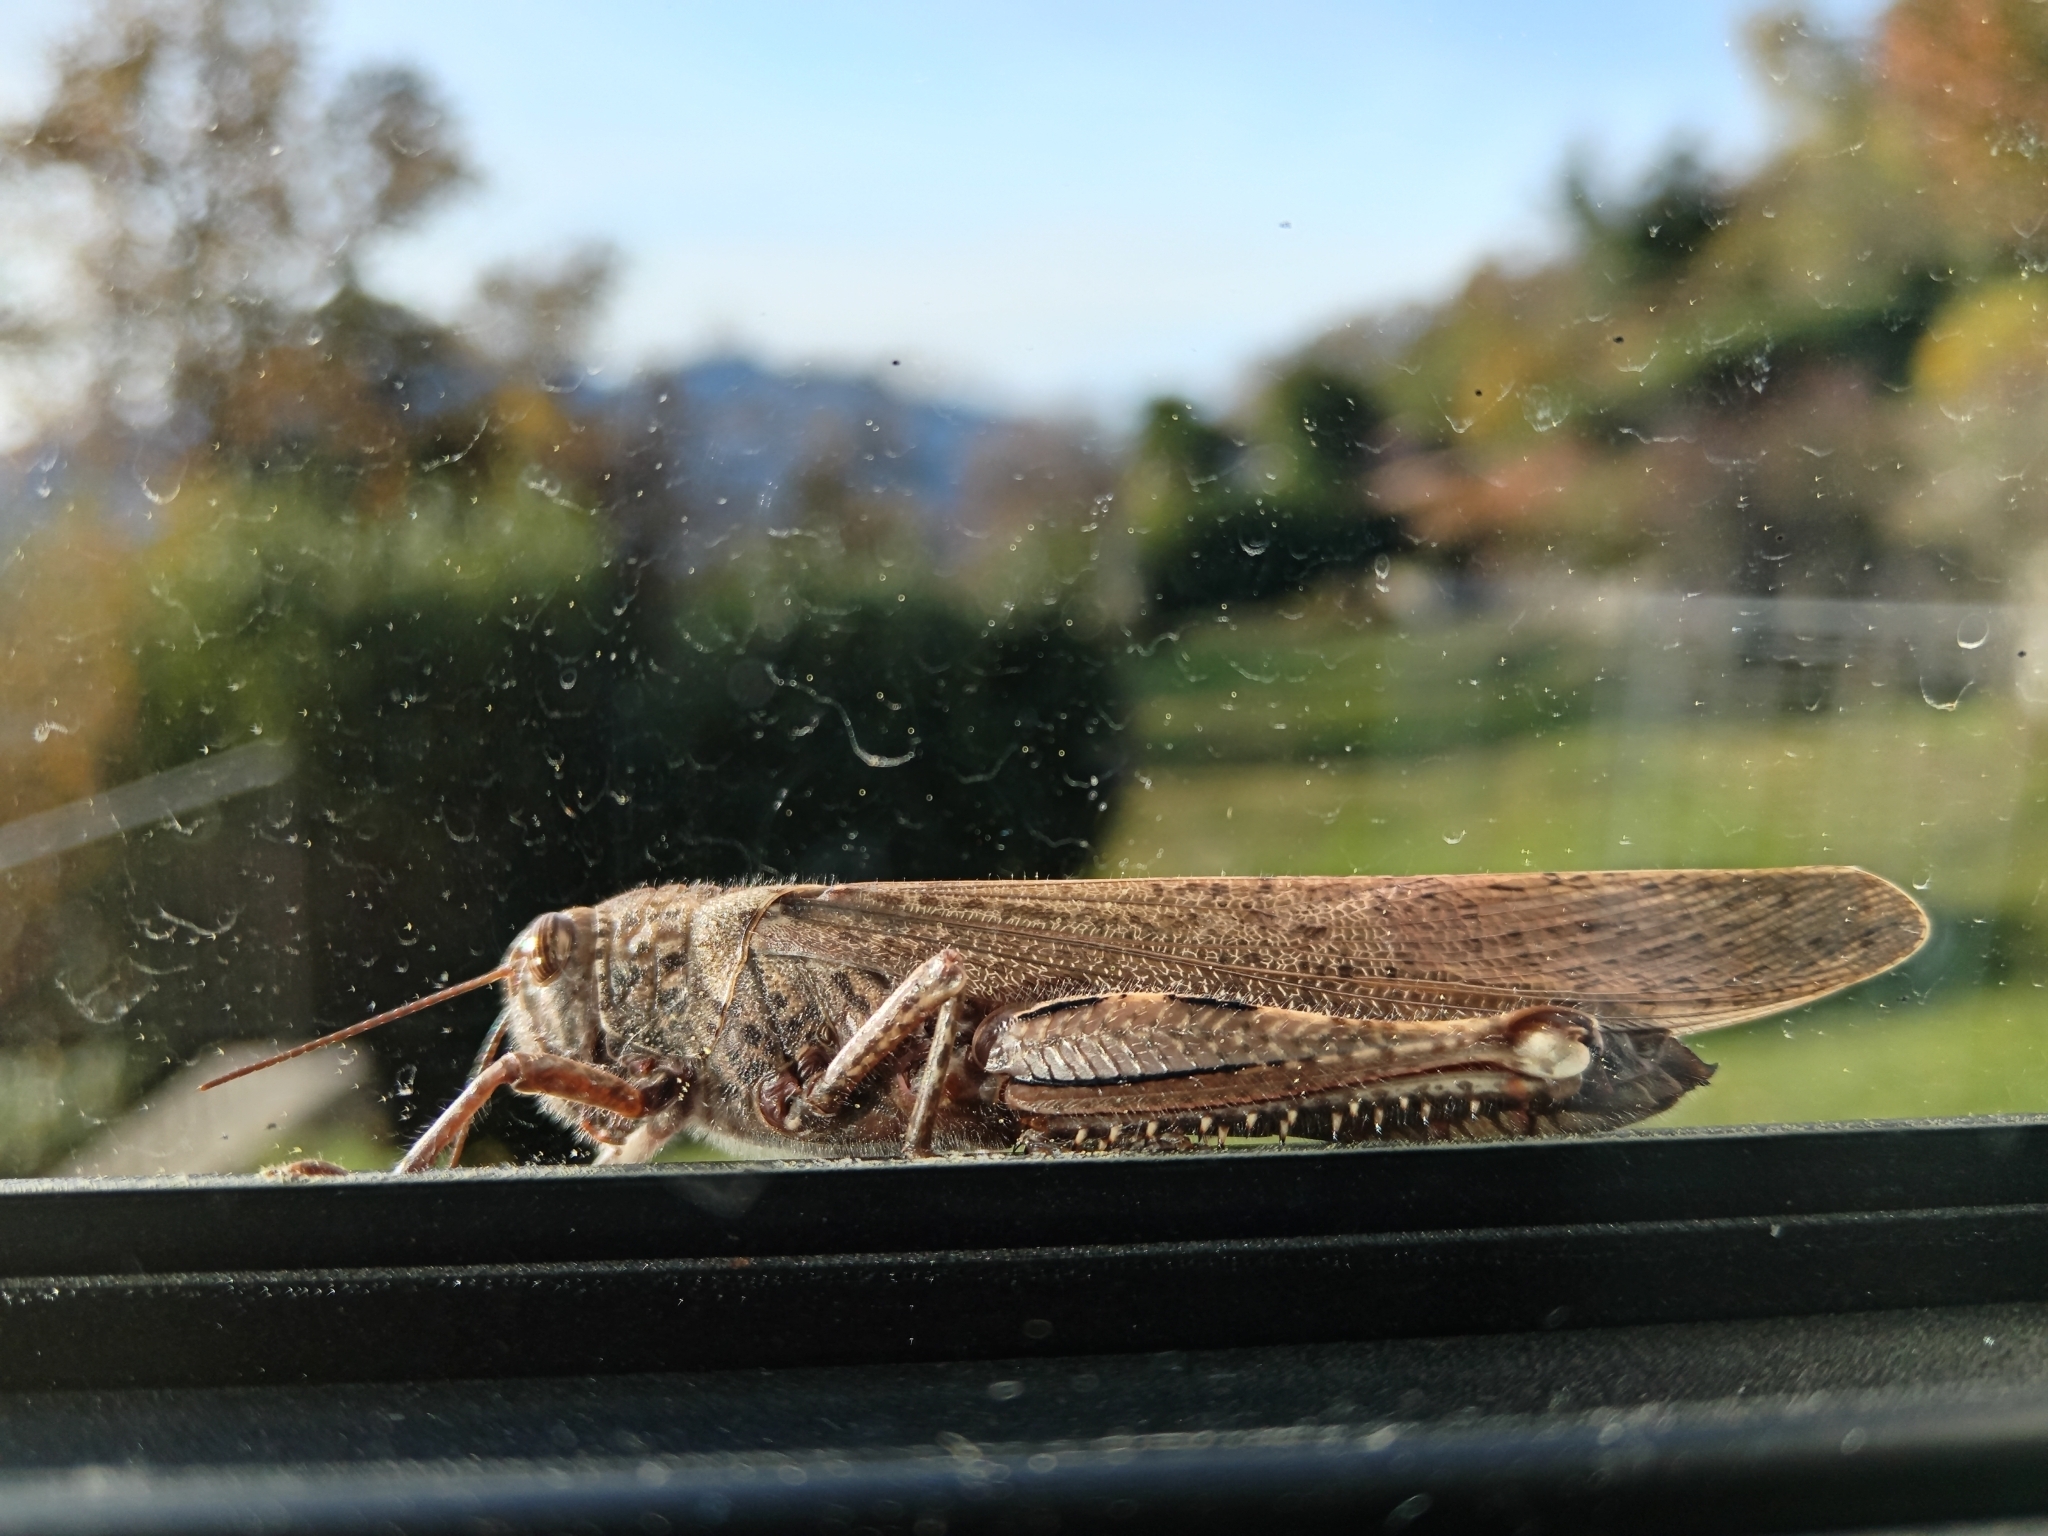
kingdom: Animalia
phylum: Arthropoda
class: Insecta
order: Orthoptera
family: Acrididae
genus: Anacridium
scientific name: Anacridium aegyptium
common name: Egyptian grasshopper
